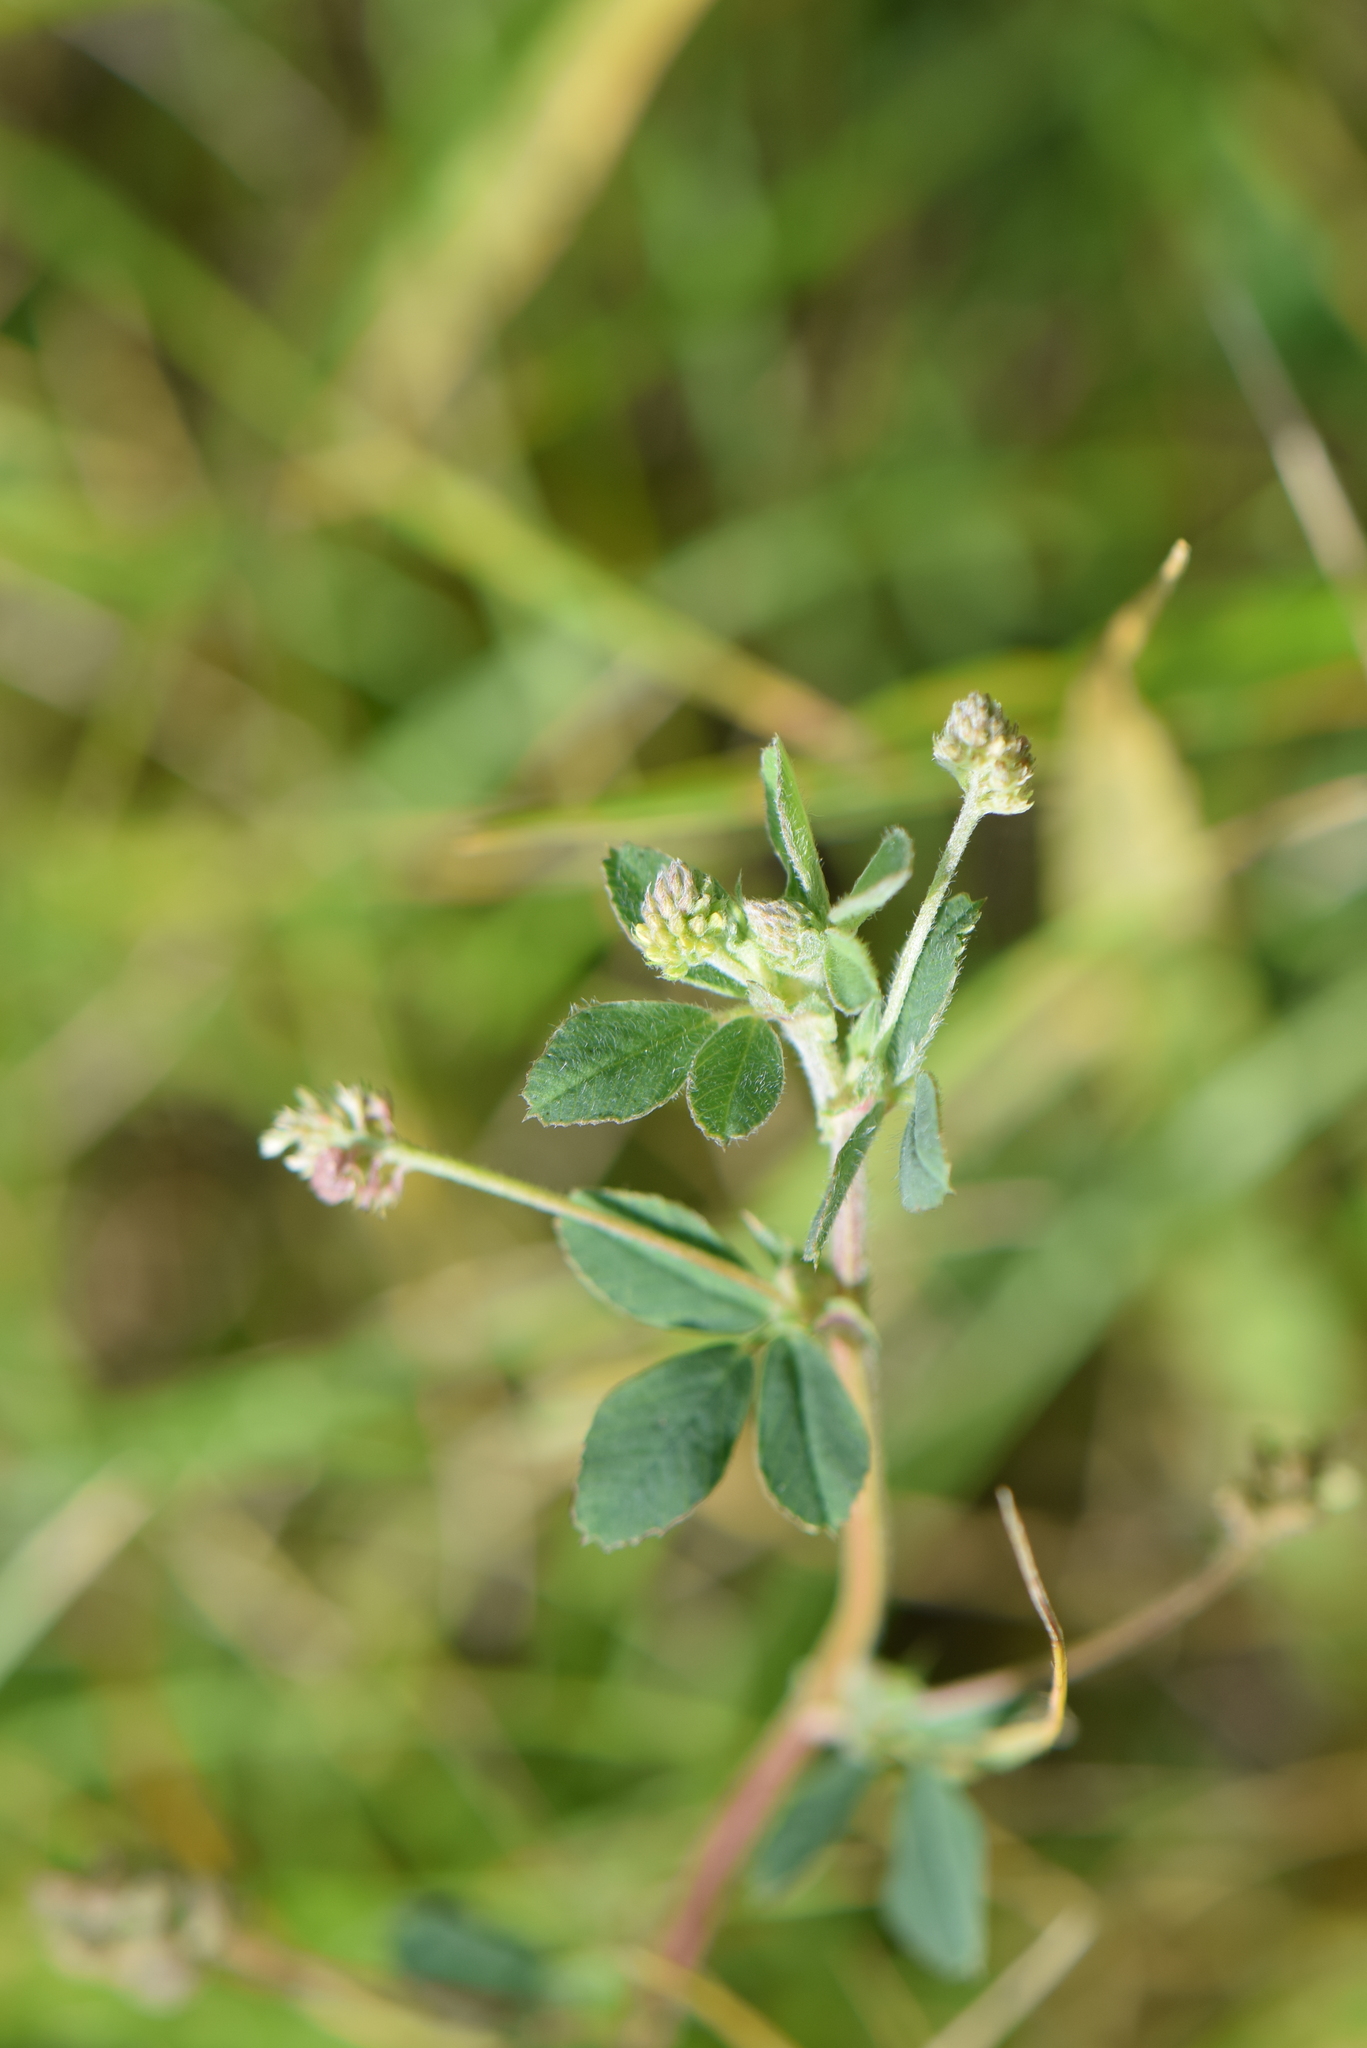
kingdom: Plantae
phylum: Tracheophyta
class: Magnoliopsida
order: Fabales
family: Fabaceae
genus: Medicago
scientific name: Medicago lupulina
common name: Black medick
